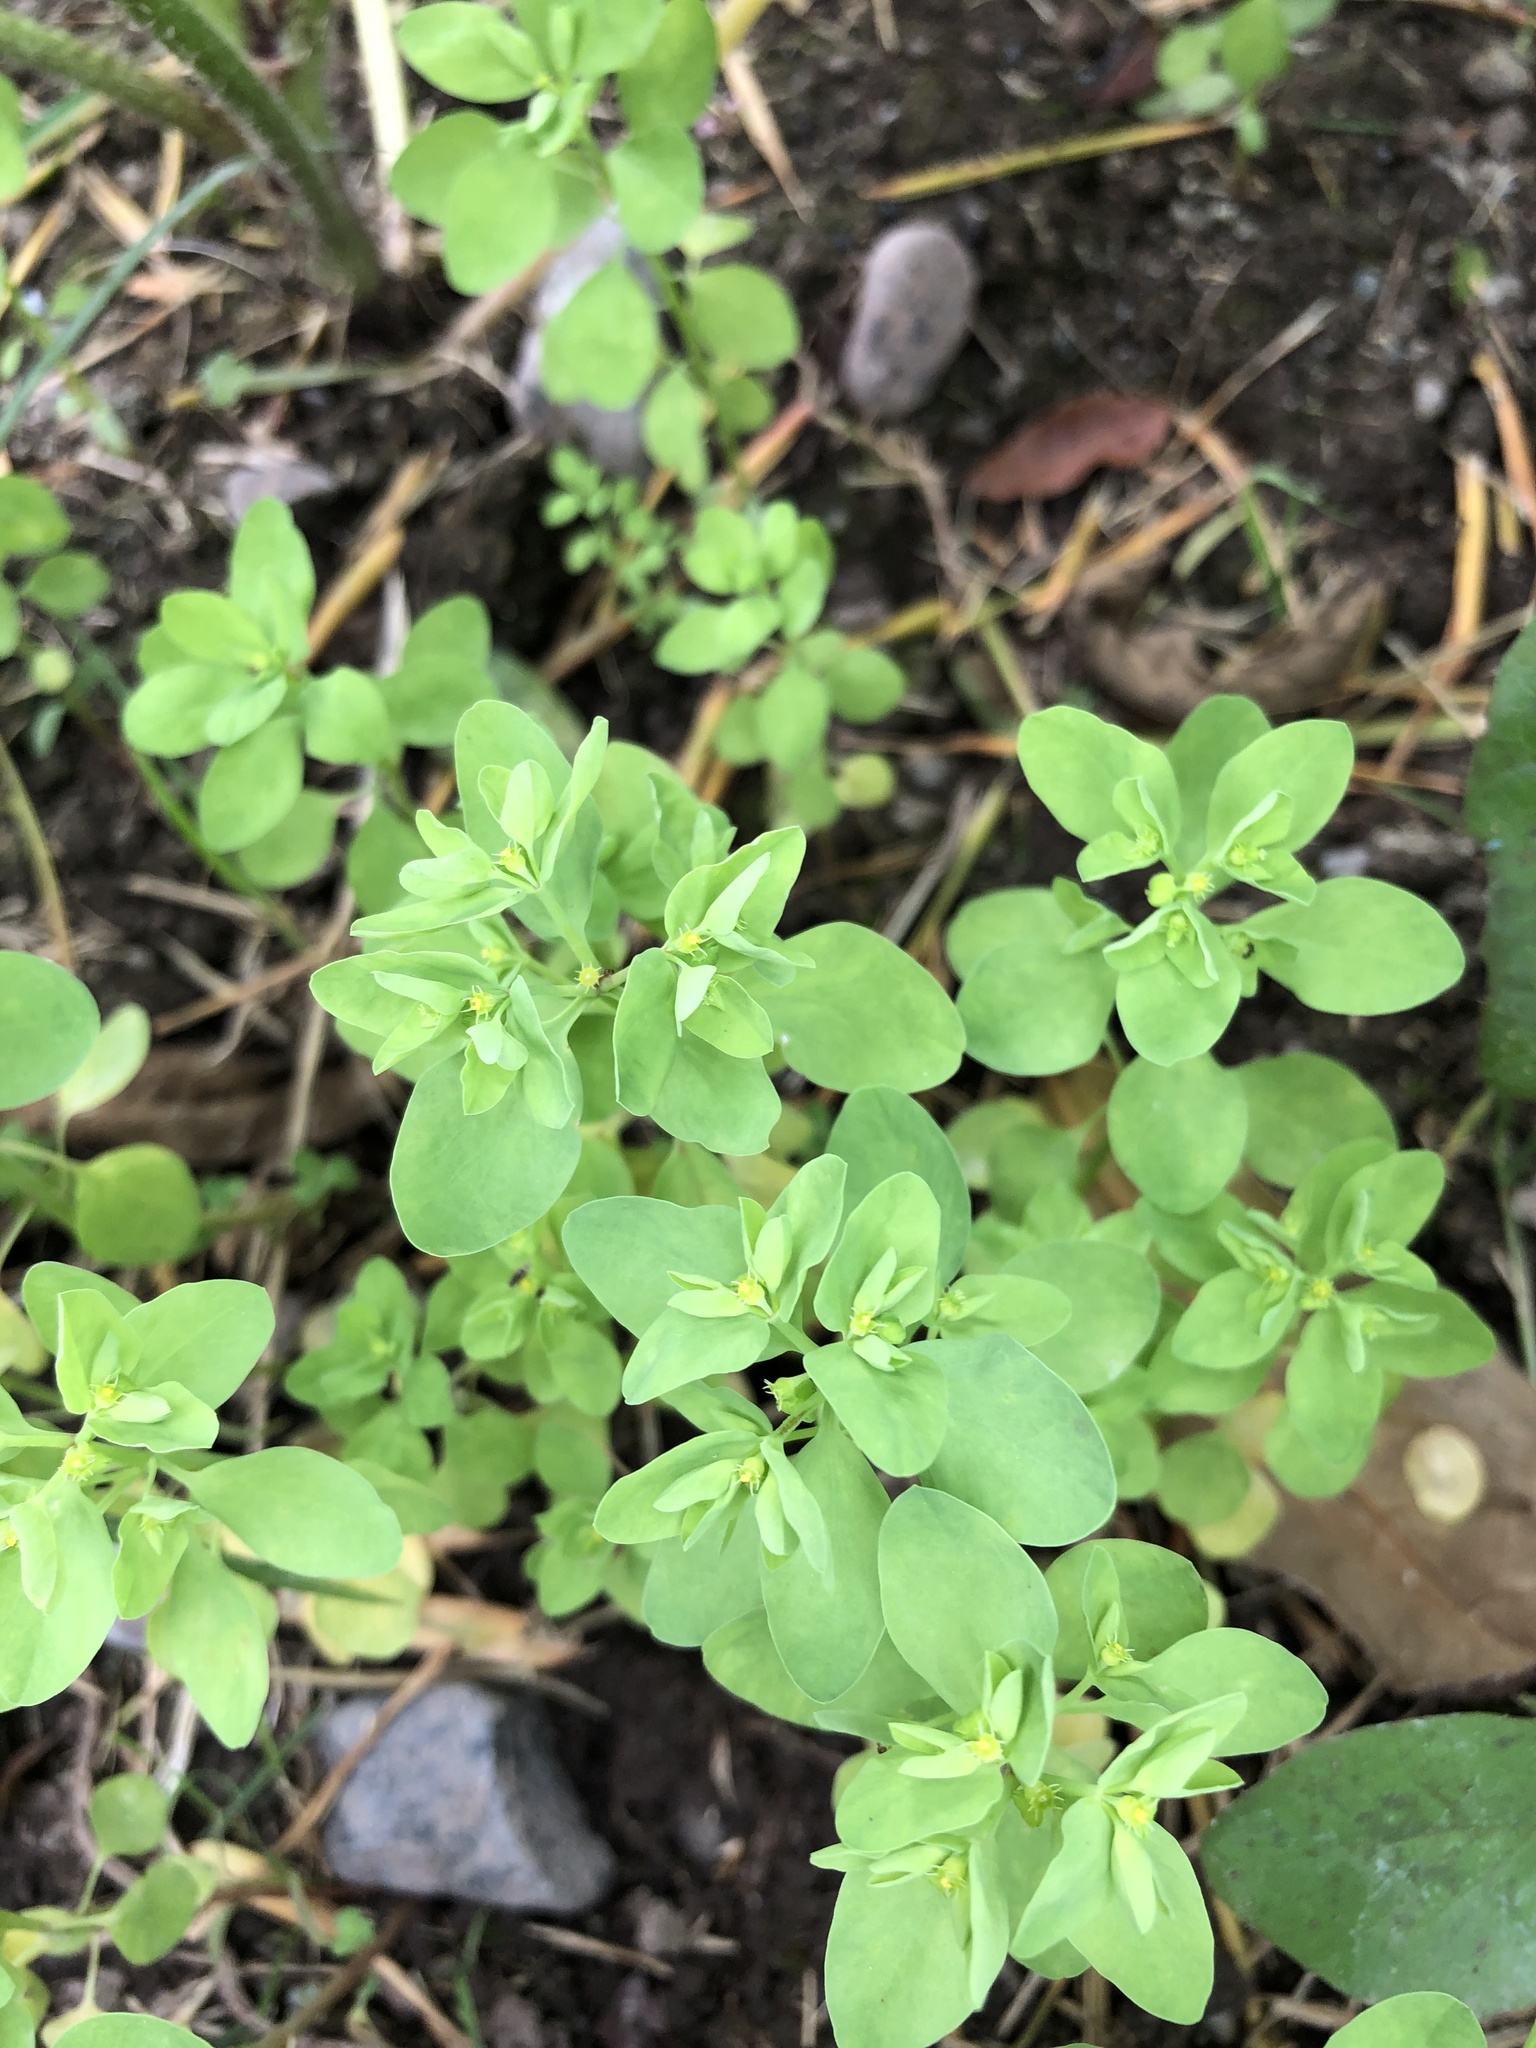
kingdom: Plantae
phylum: Tracheophyta
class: Magnoliopsida
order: Malpighiales
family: Euphorbiaceae
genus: Euphorbia
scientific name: Euphorbia peplus
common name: Petty spurge
